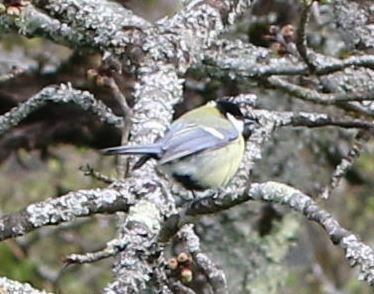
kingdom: Animalia
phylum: Chordata
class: Aves
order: Passeriformes
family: Paridae
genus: Parus
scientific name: Parus major
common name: Great tit
